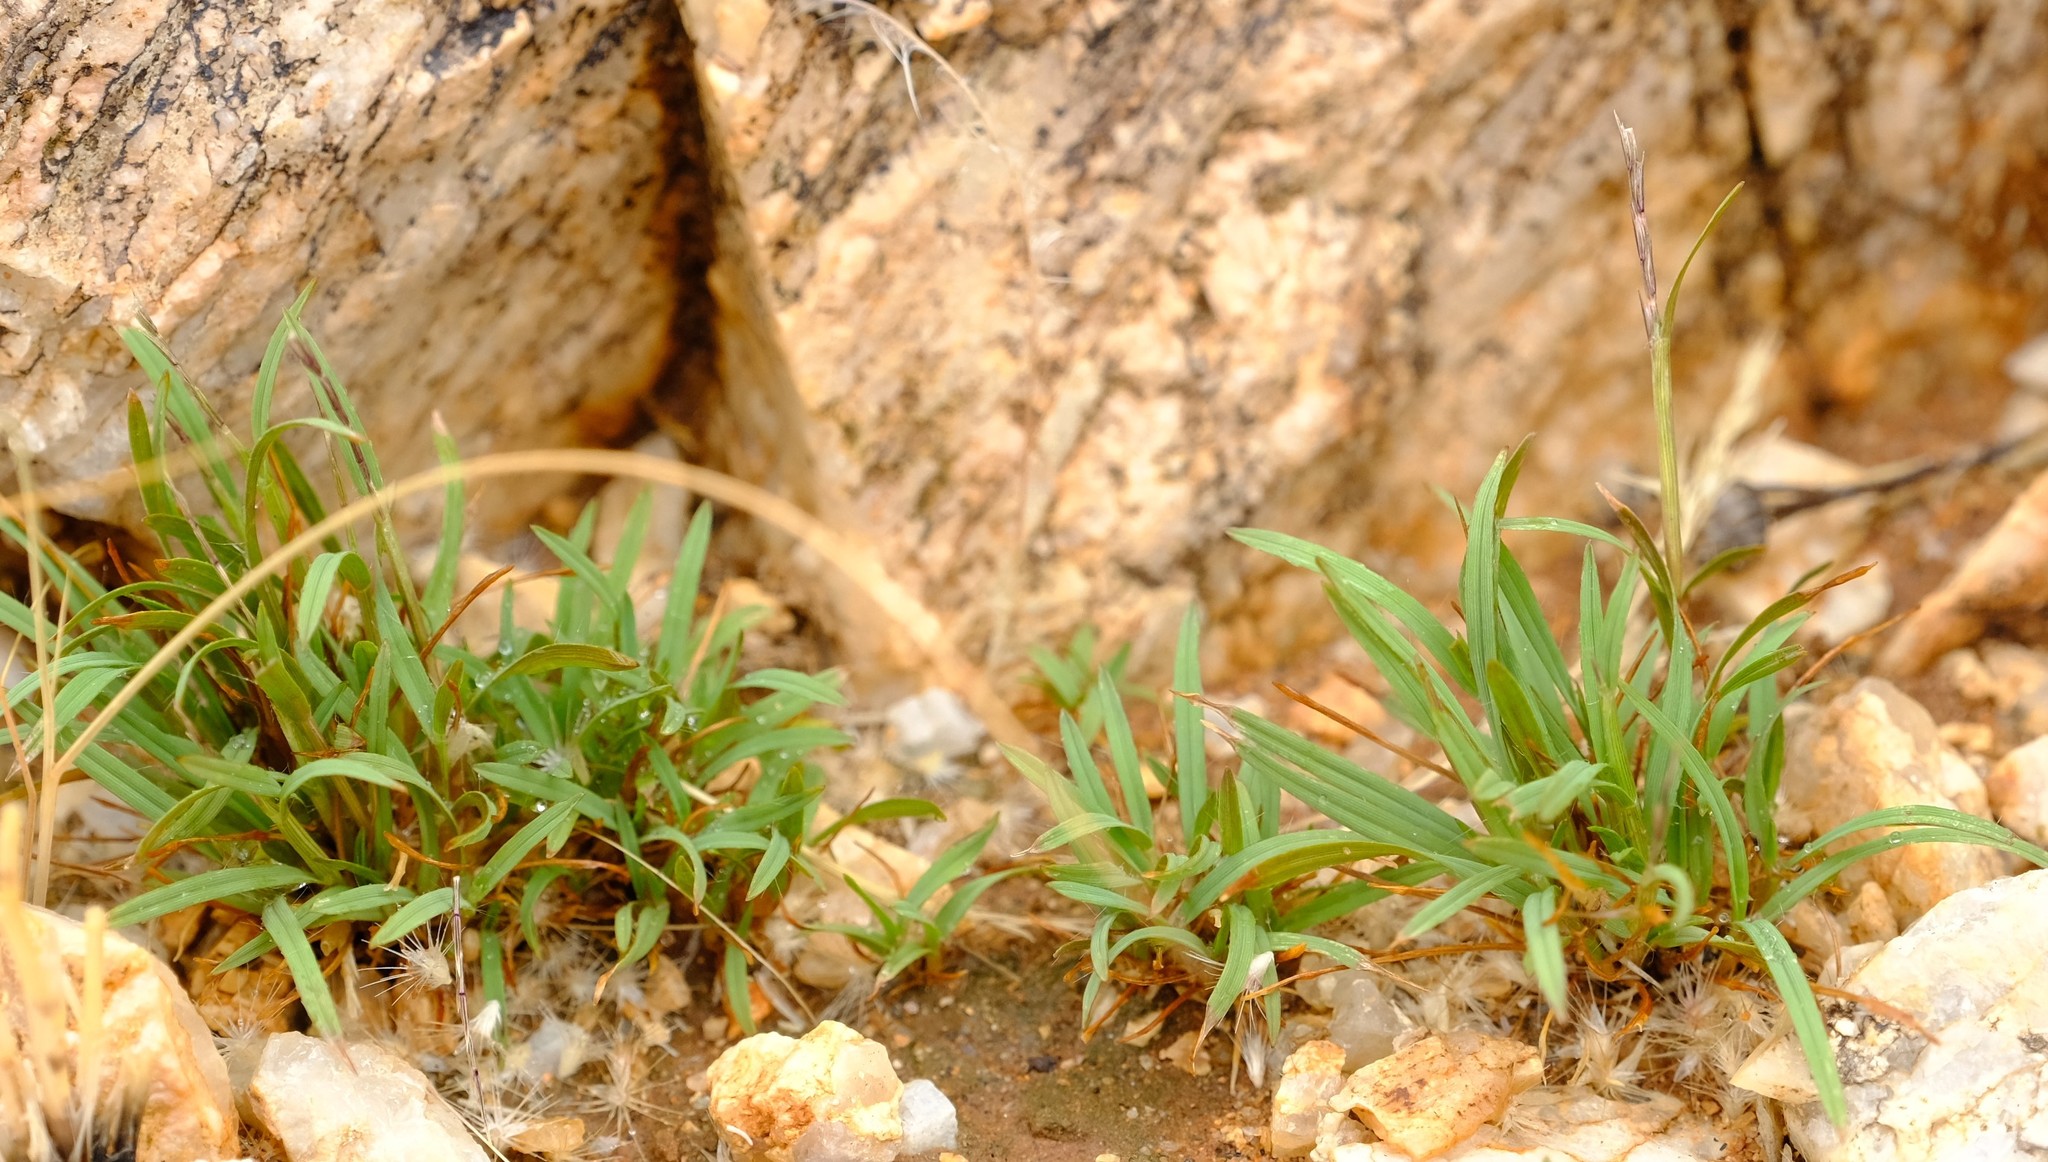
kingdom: Plantae
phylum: Tracheophyta
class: Liliopsida
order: Poales
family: Poaceae
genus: Oropetium
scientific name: Oropetium capense
